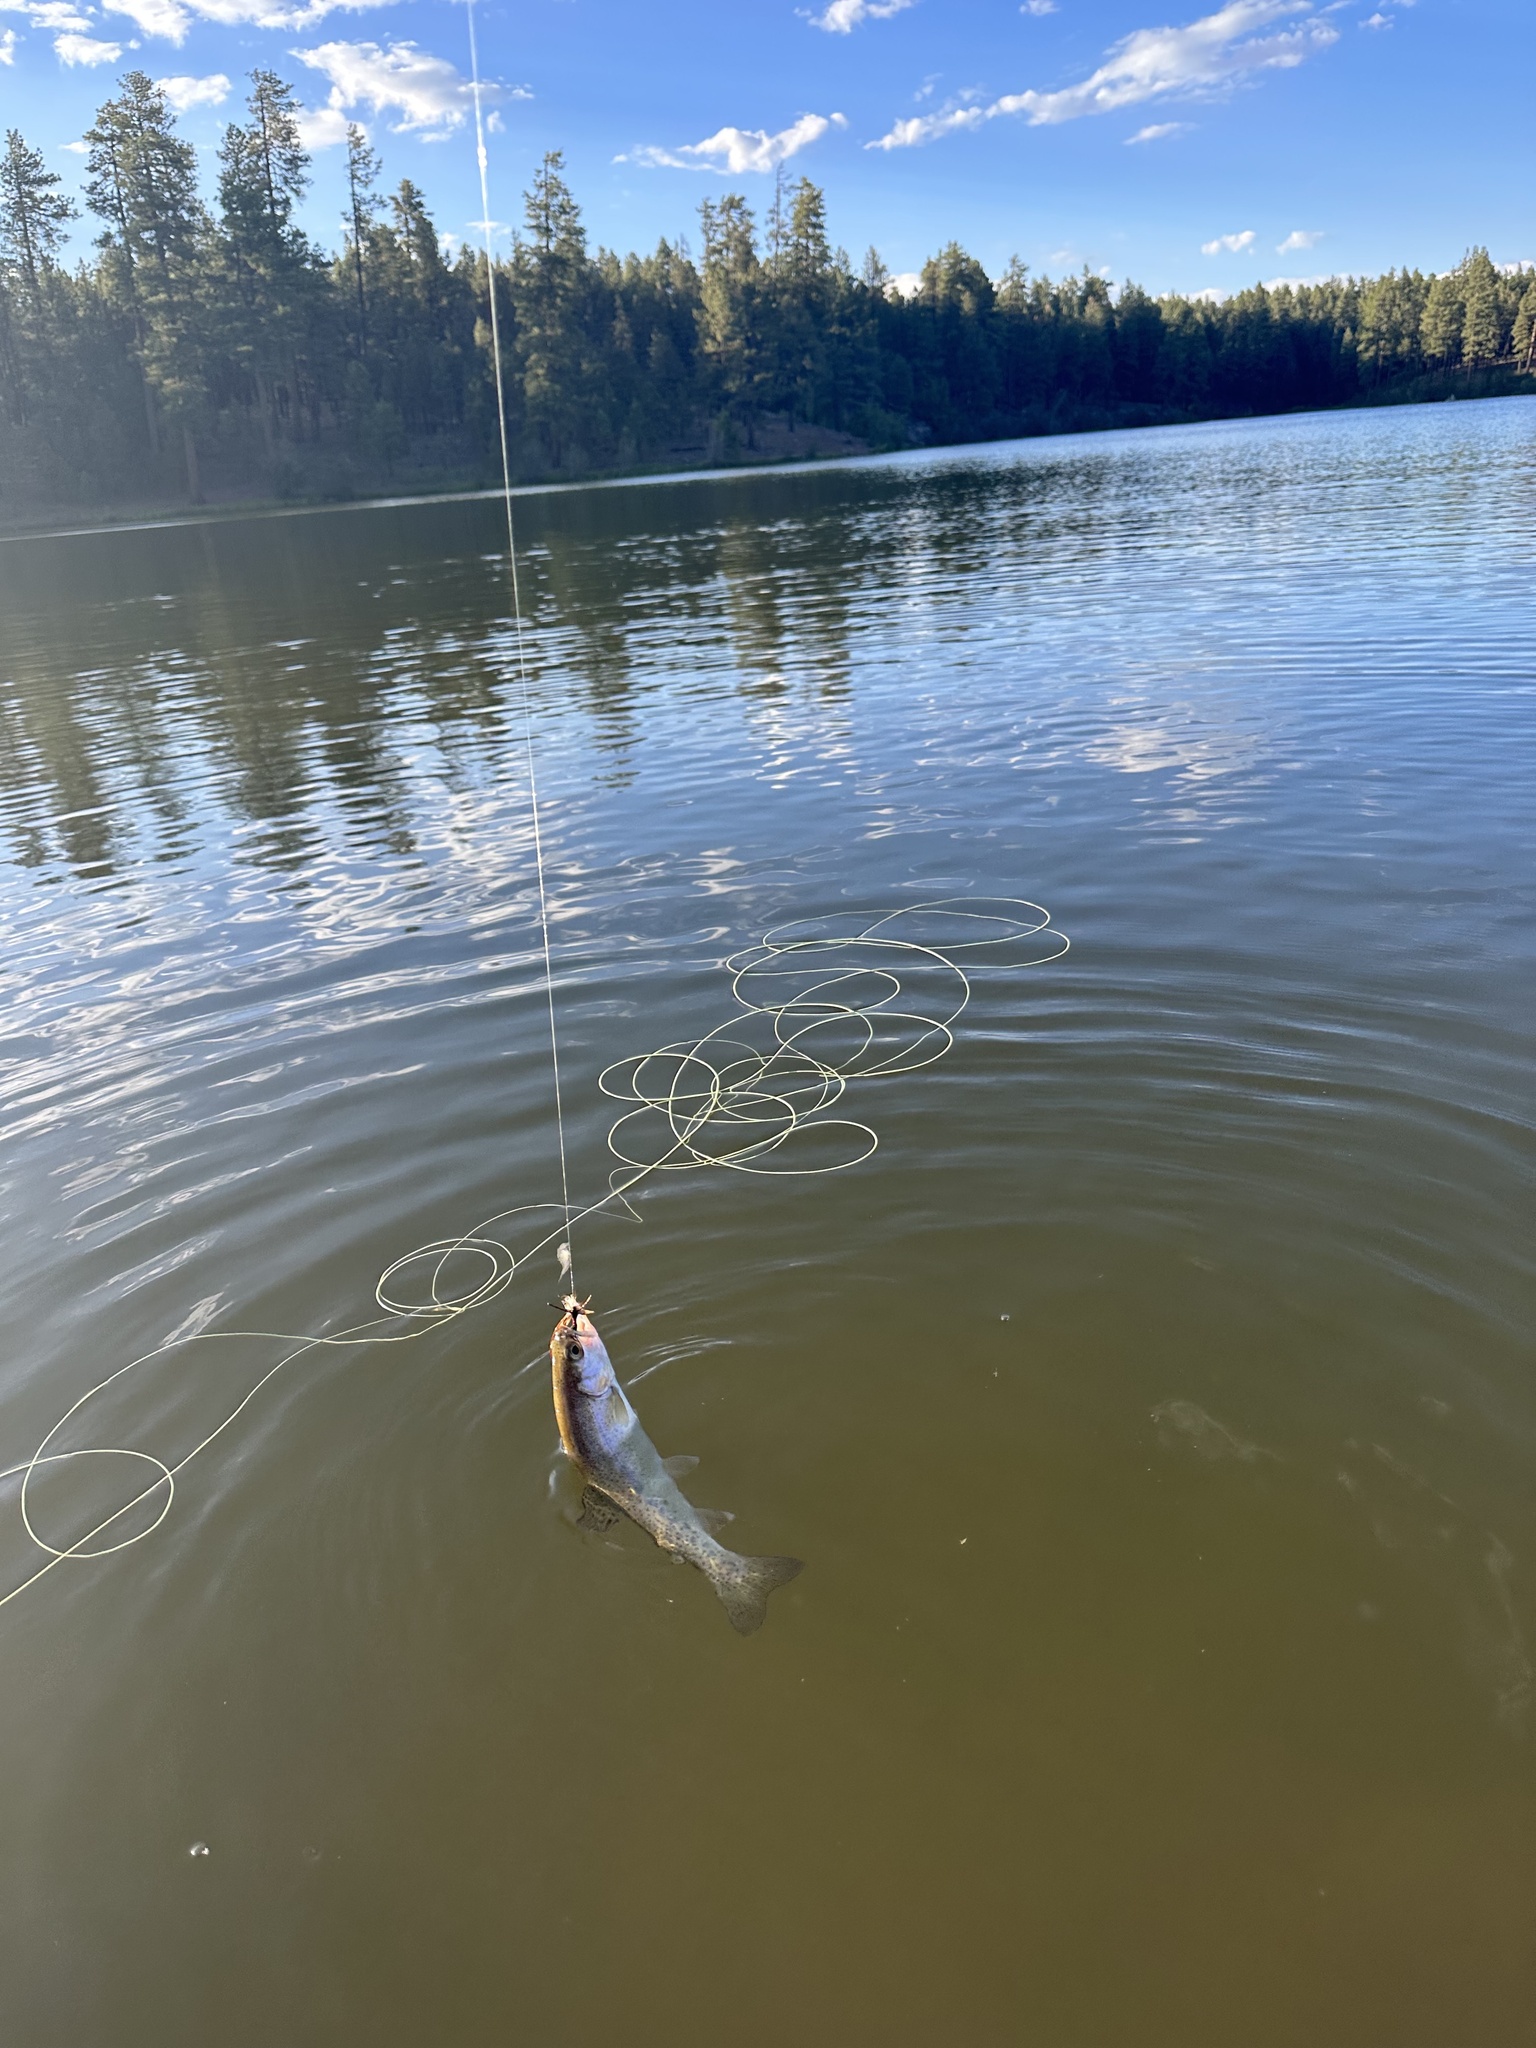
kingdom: Animalia
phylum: Chordata
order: Salmoniformes
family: Salmonidae
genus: Oncorhynchus
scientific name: Oncorhynchus mykiss
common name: Rainbow trout
